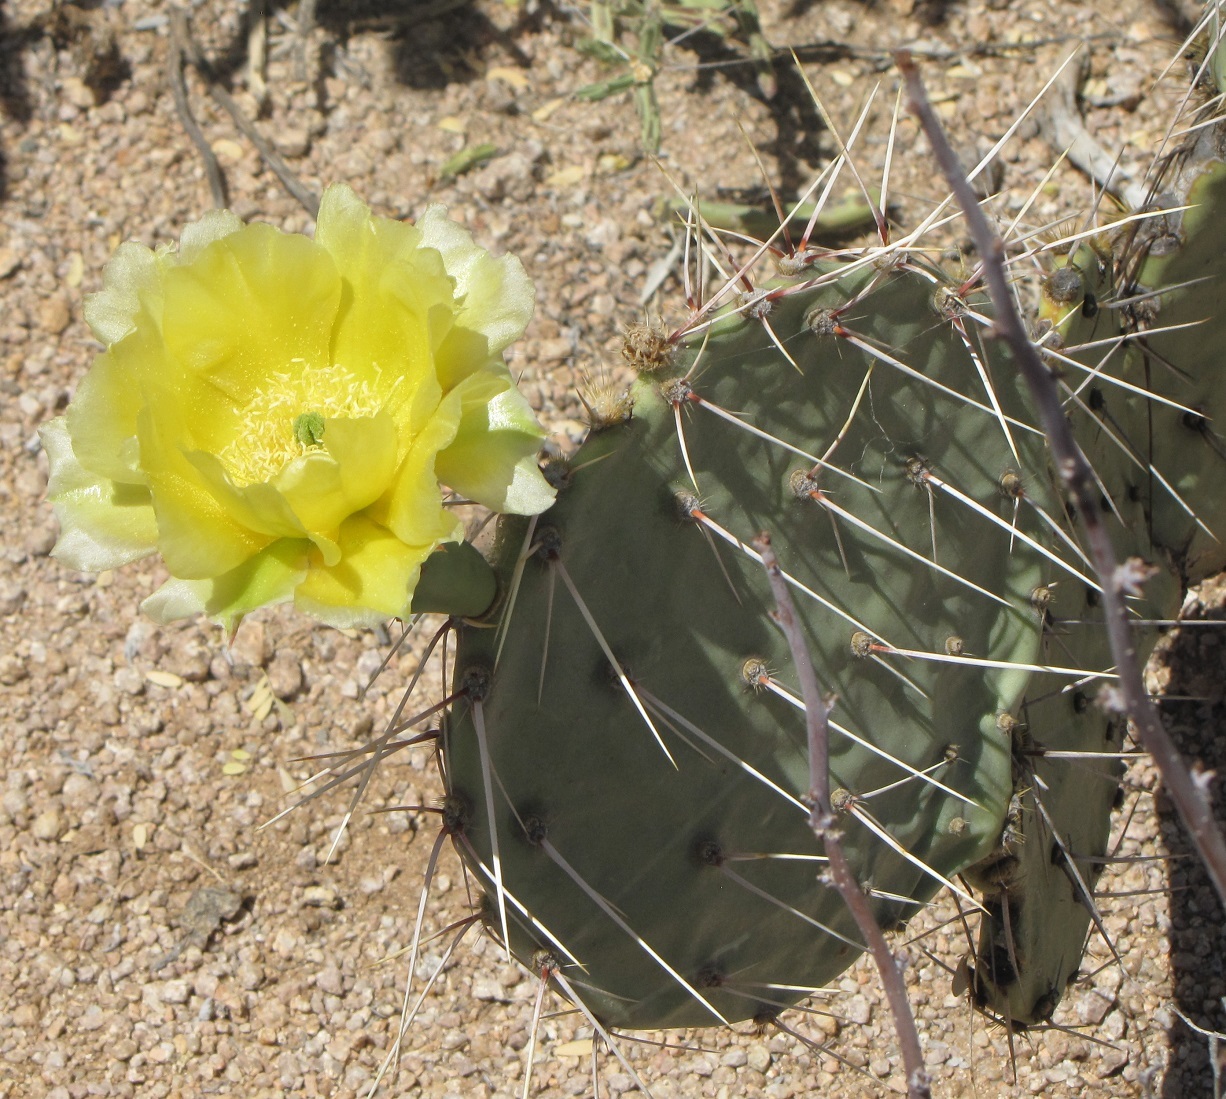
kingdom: Plantae
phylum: Tracheophyta
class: Magnoliopsida
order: Caryophyllales
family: Cactaceae
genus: Opuntia
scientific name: Opuntia engelmannii
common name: Cactus-apple
